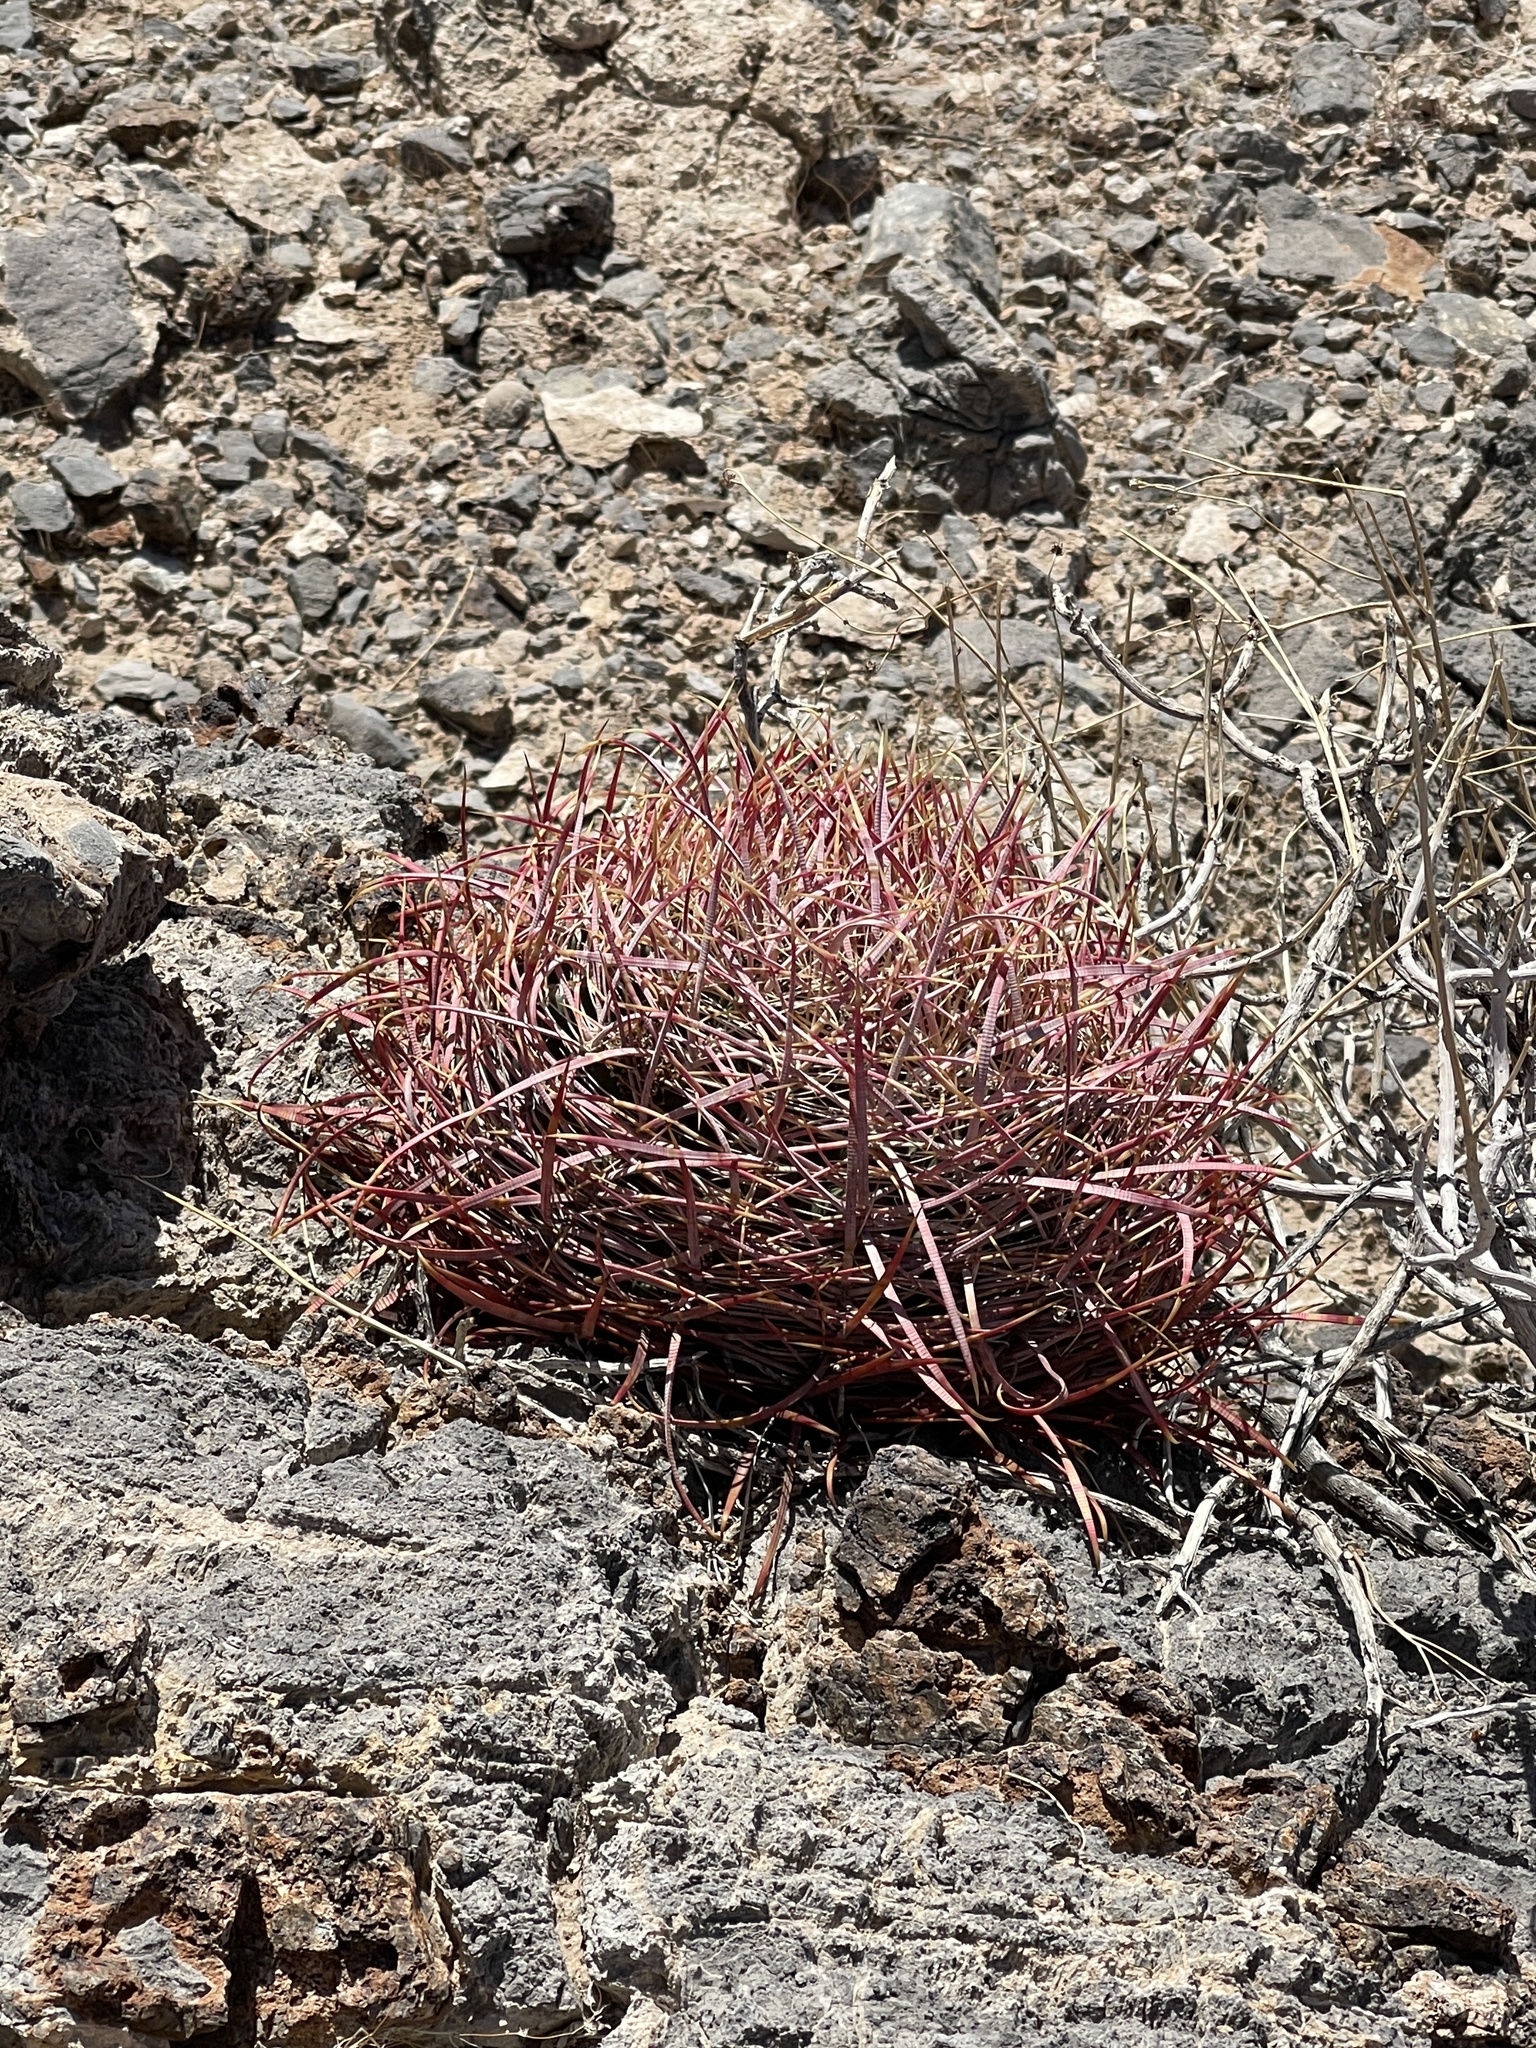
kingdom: Plantae
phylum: Tracheophyta
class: Magnoliopsida
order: Caryophyllales
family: Cactaceae
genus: Ferocactus
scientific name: Ferocactus cylindraceus
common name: California barrel cactus
